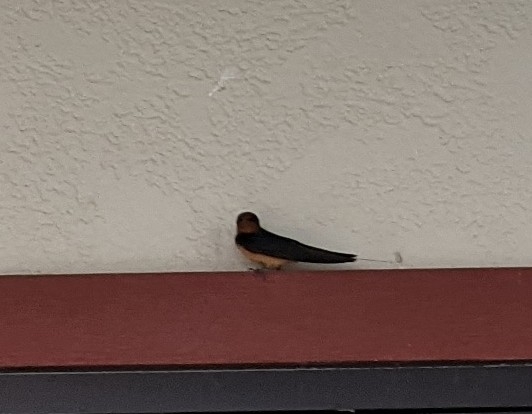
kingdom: Animalia
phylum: Chordata
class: Aves
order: Passeriformes
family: Hirundinidae
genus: Hirundo
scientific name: Hirundo rustica
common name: Barn swallow
